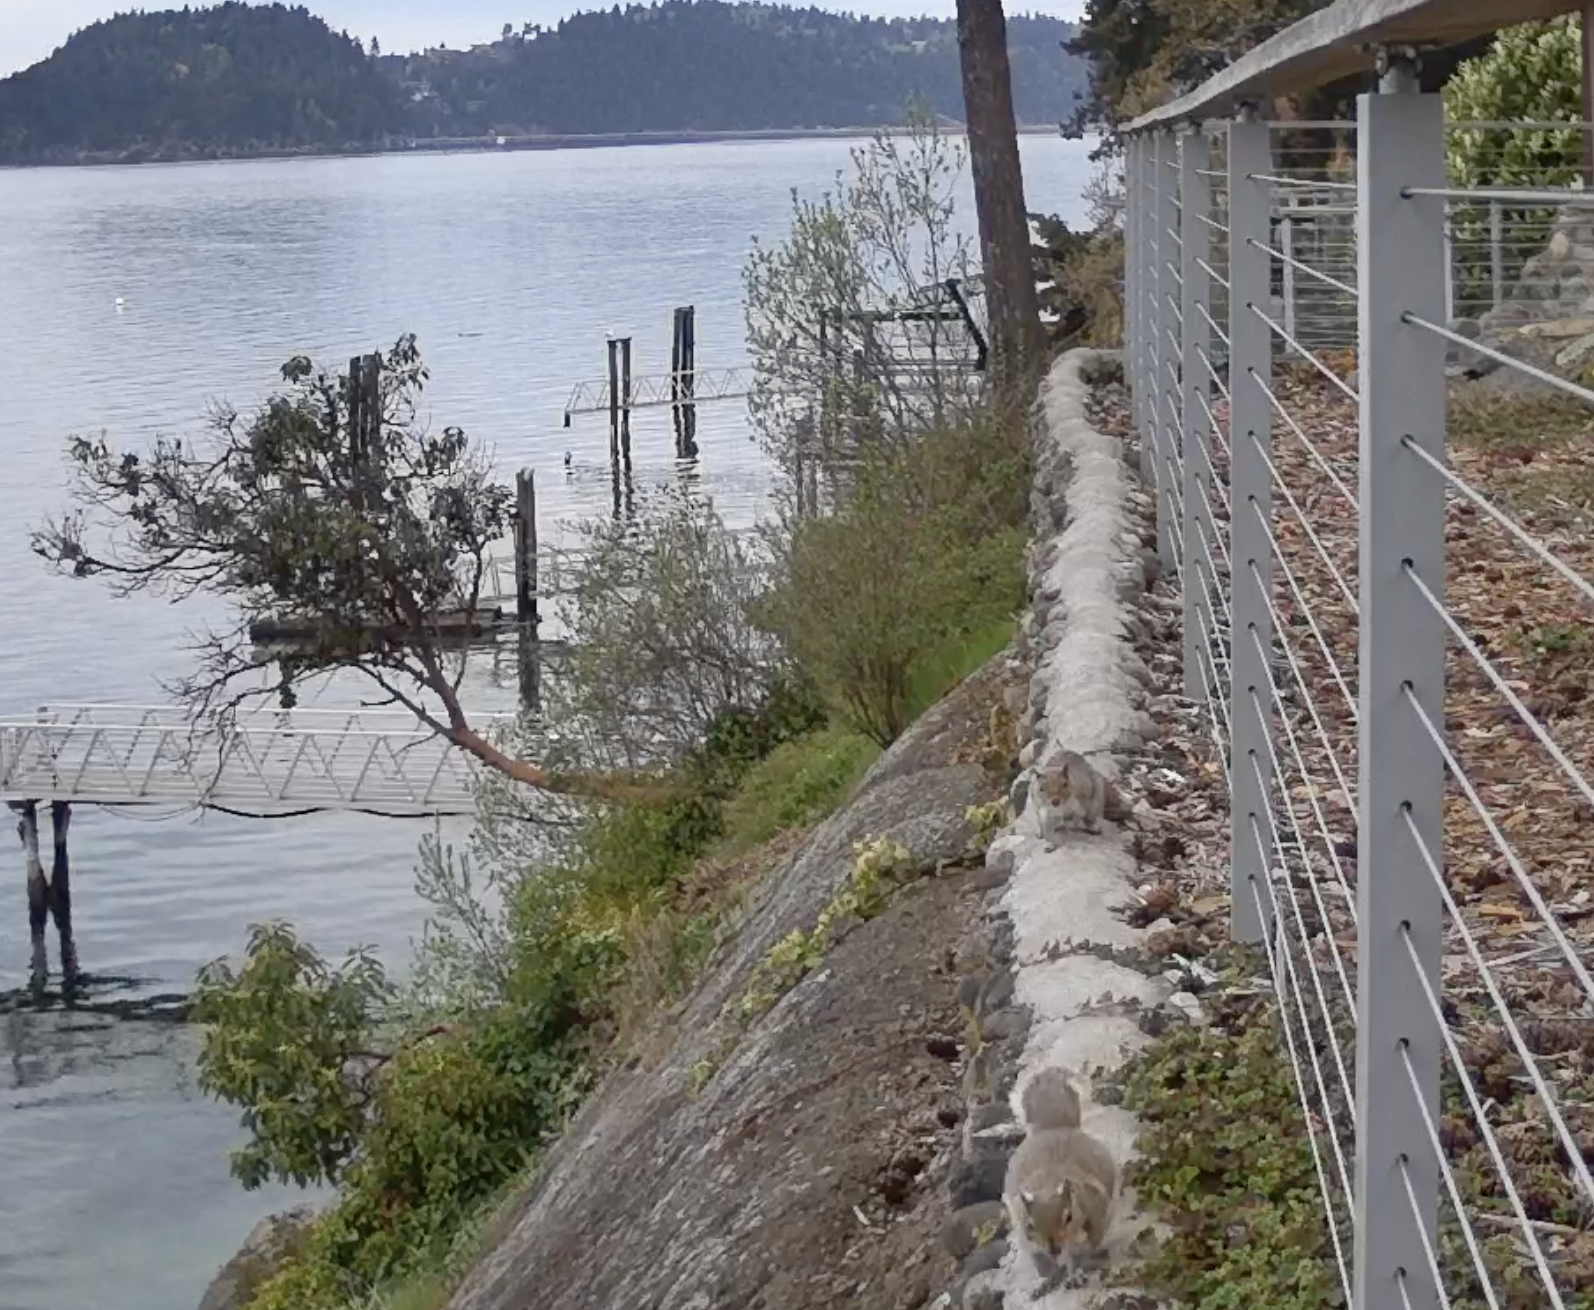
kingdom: Animalia
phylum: Chordata
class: Mammalia
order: Rodentia
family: Sciuridae
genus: Sciurus
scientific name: Sciurus carolinensis
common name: Eastern gray squirrel
